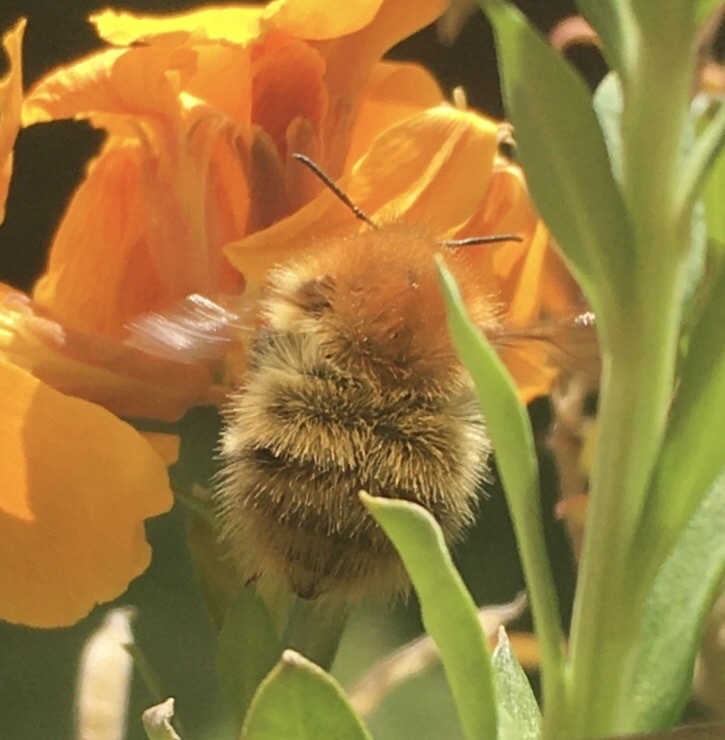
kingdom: Animalia
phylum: Arthropoda
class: Insecta
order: Hymenoptera
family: Apidae
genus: Bombus
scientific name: Bombus pascuorum
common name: Common carder bee
